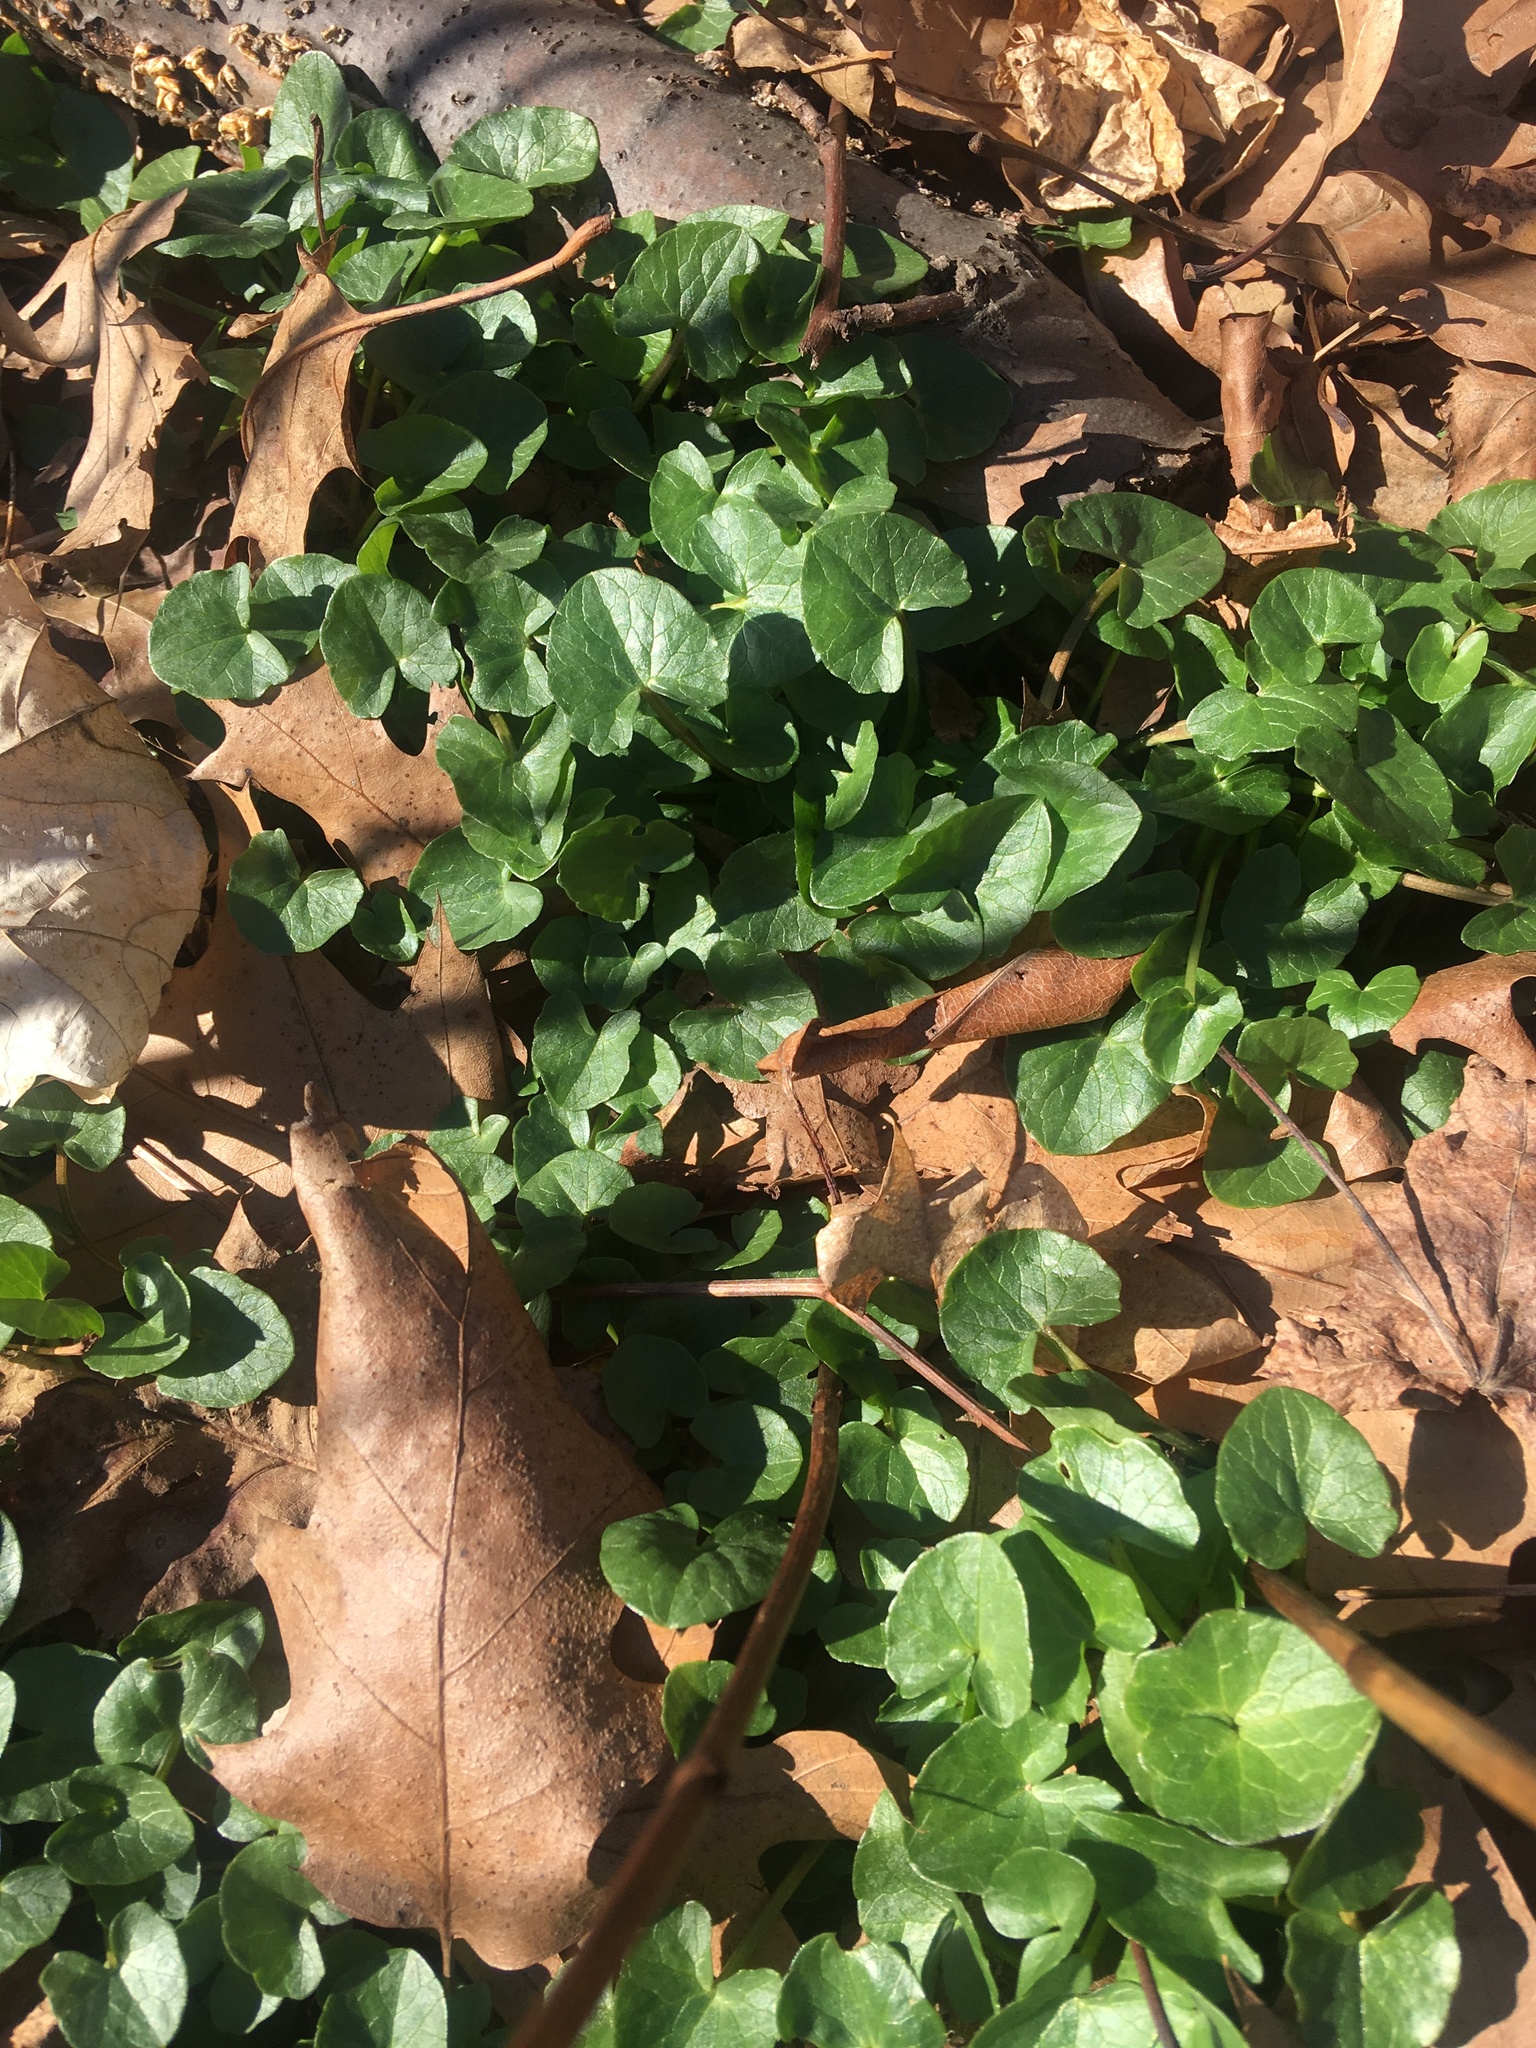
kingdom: Plantae
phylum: Tracheophyta
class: Magnoliopsida
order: Ranunculales
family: Ranunculaceae
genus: Ficaria
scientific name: Ficaria verna
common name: Lesser celandine
